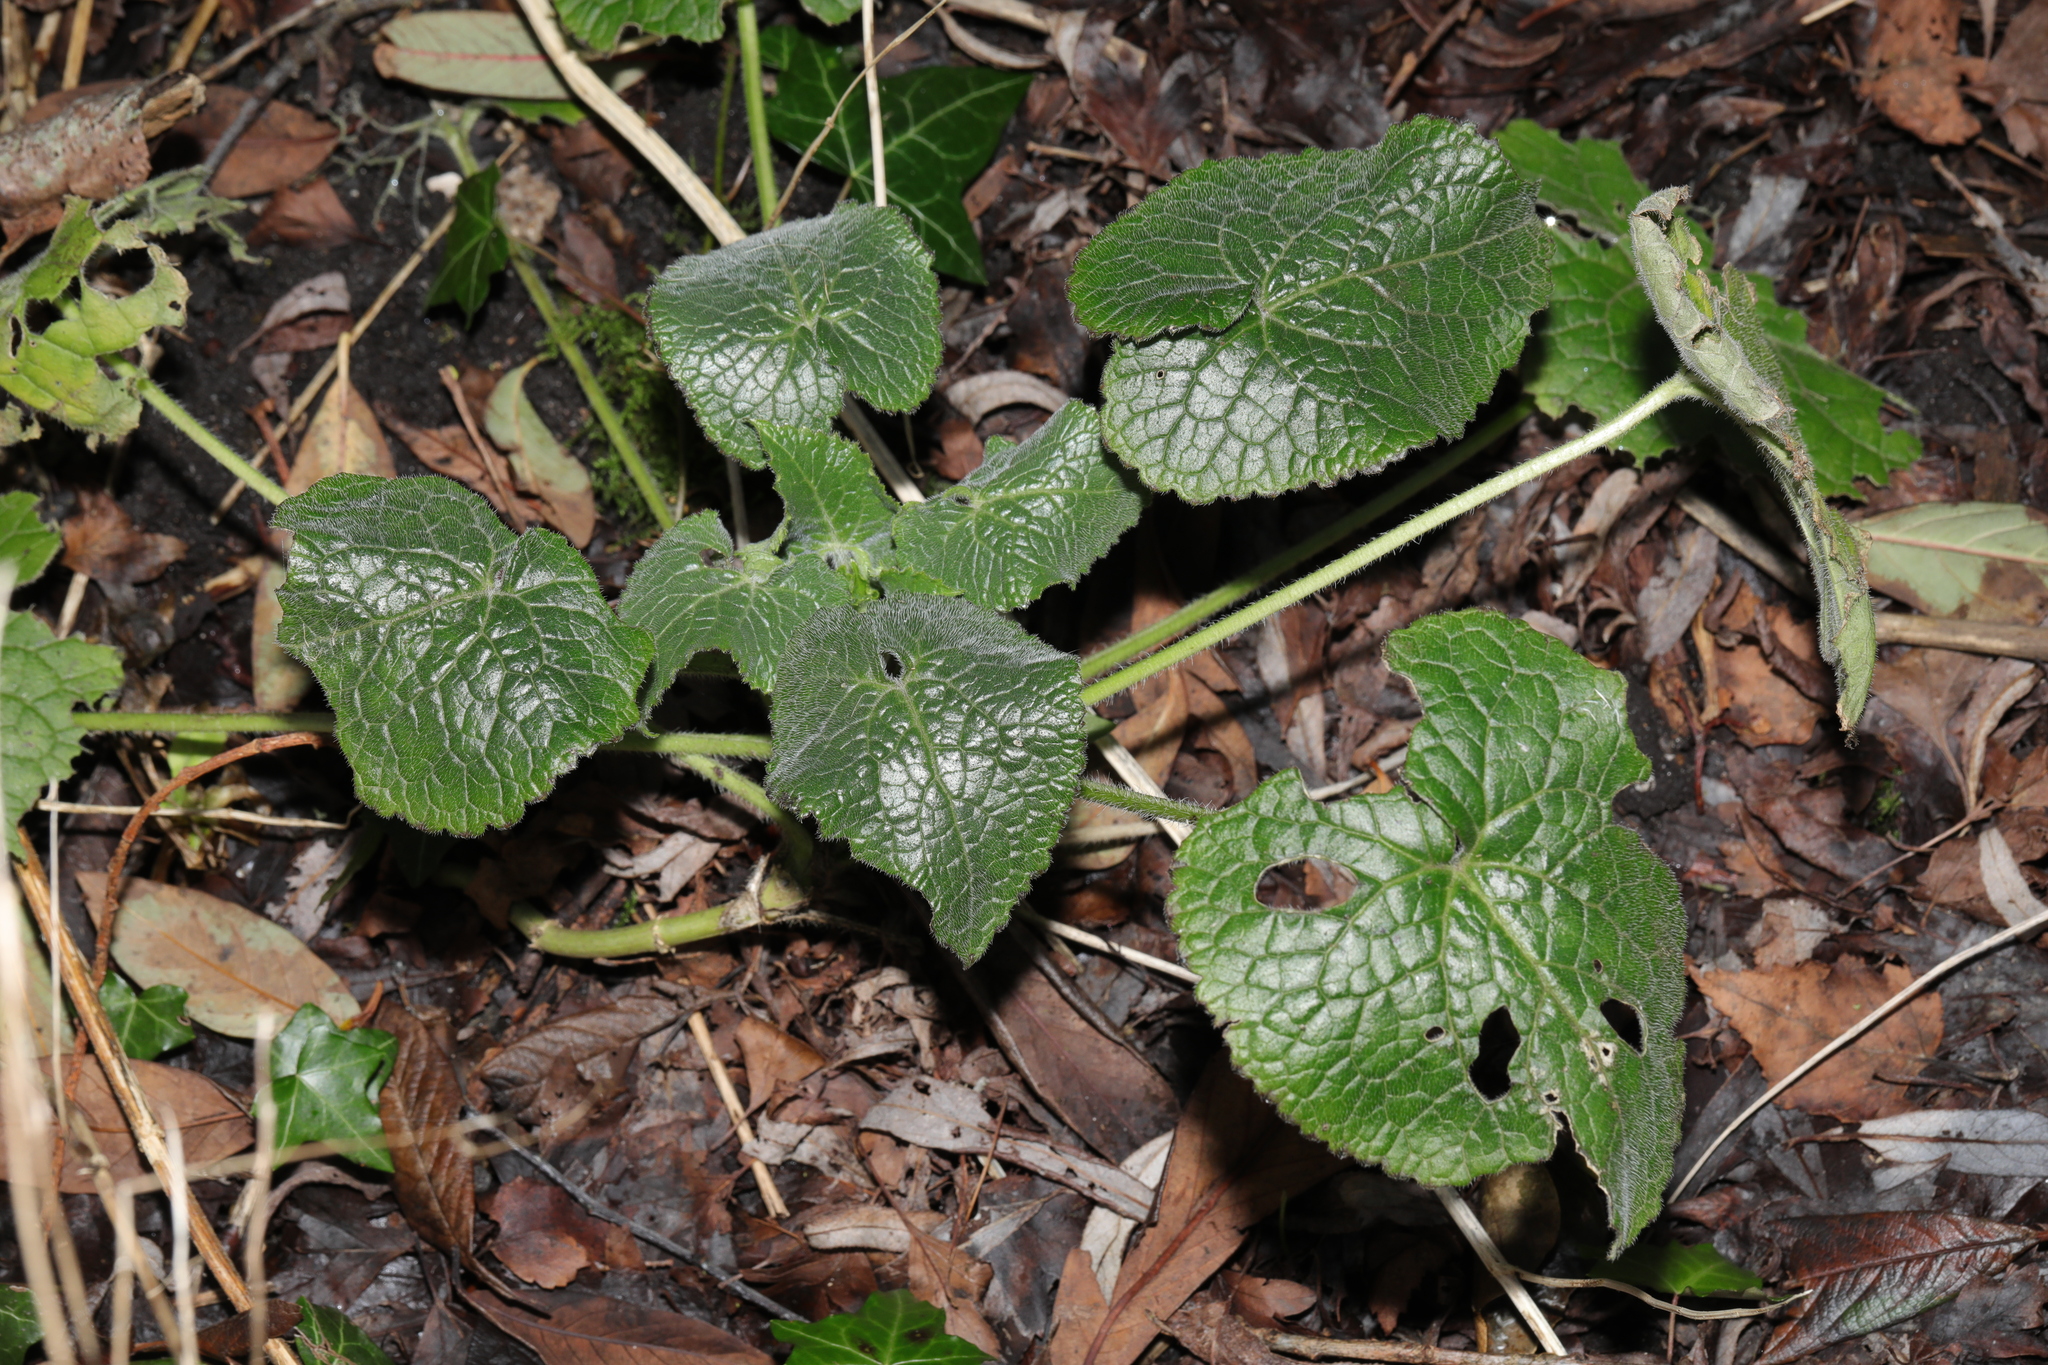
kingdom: Plantae
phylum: Tracheophyta
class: Magnoliopsida
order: Brassicales
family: Brassicaceae
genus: Lunaria
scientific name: Lunaria annua
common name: Honesty
